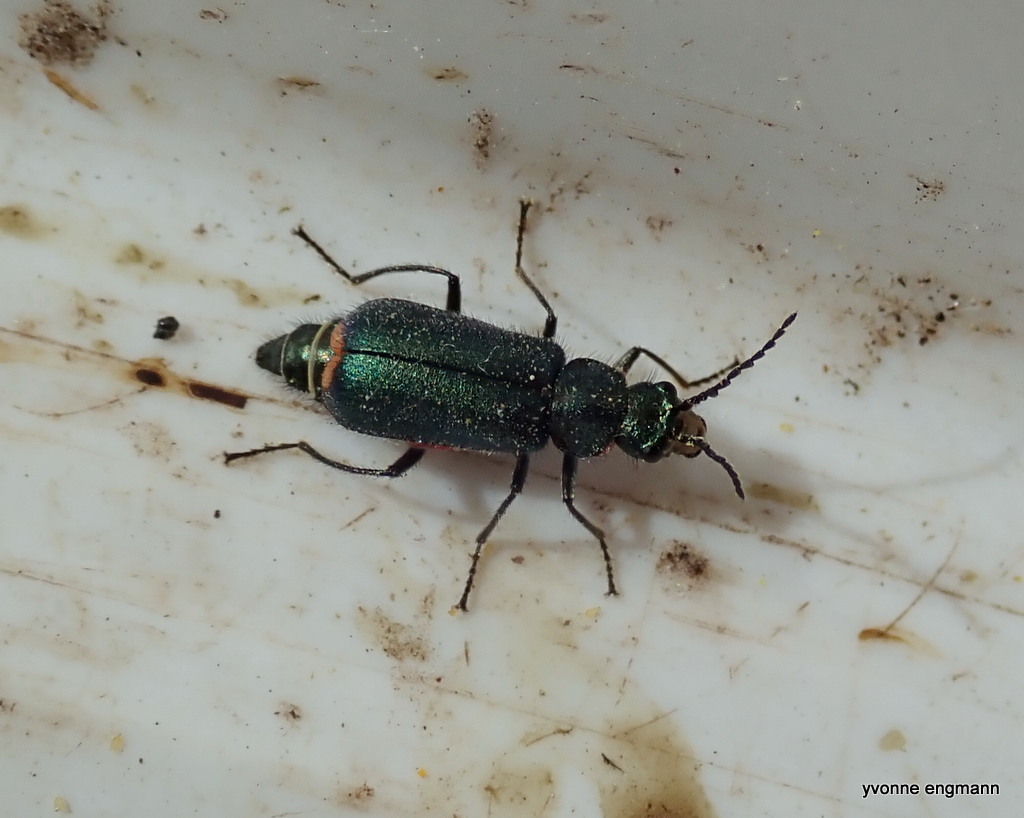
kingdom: Animalia
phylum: Arthropoda
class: Insecta
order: Coleoptera
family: Melyridae
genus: Malachius
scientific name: Malachius bipustulatus
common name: Malachite beetle
